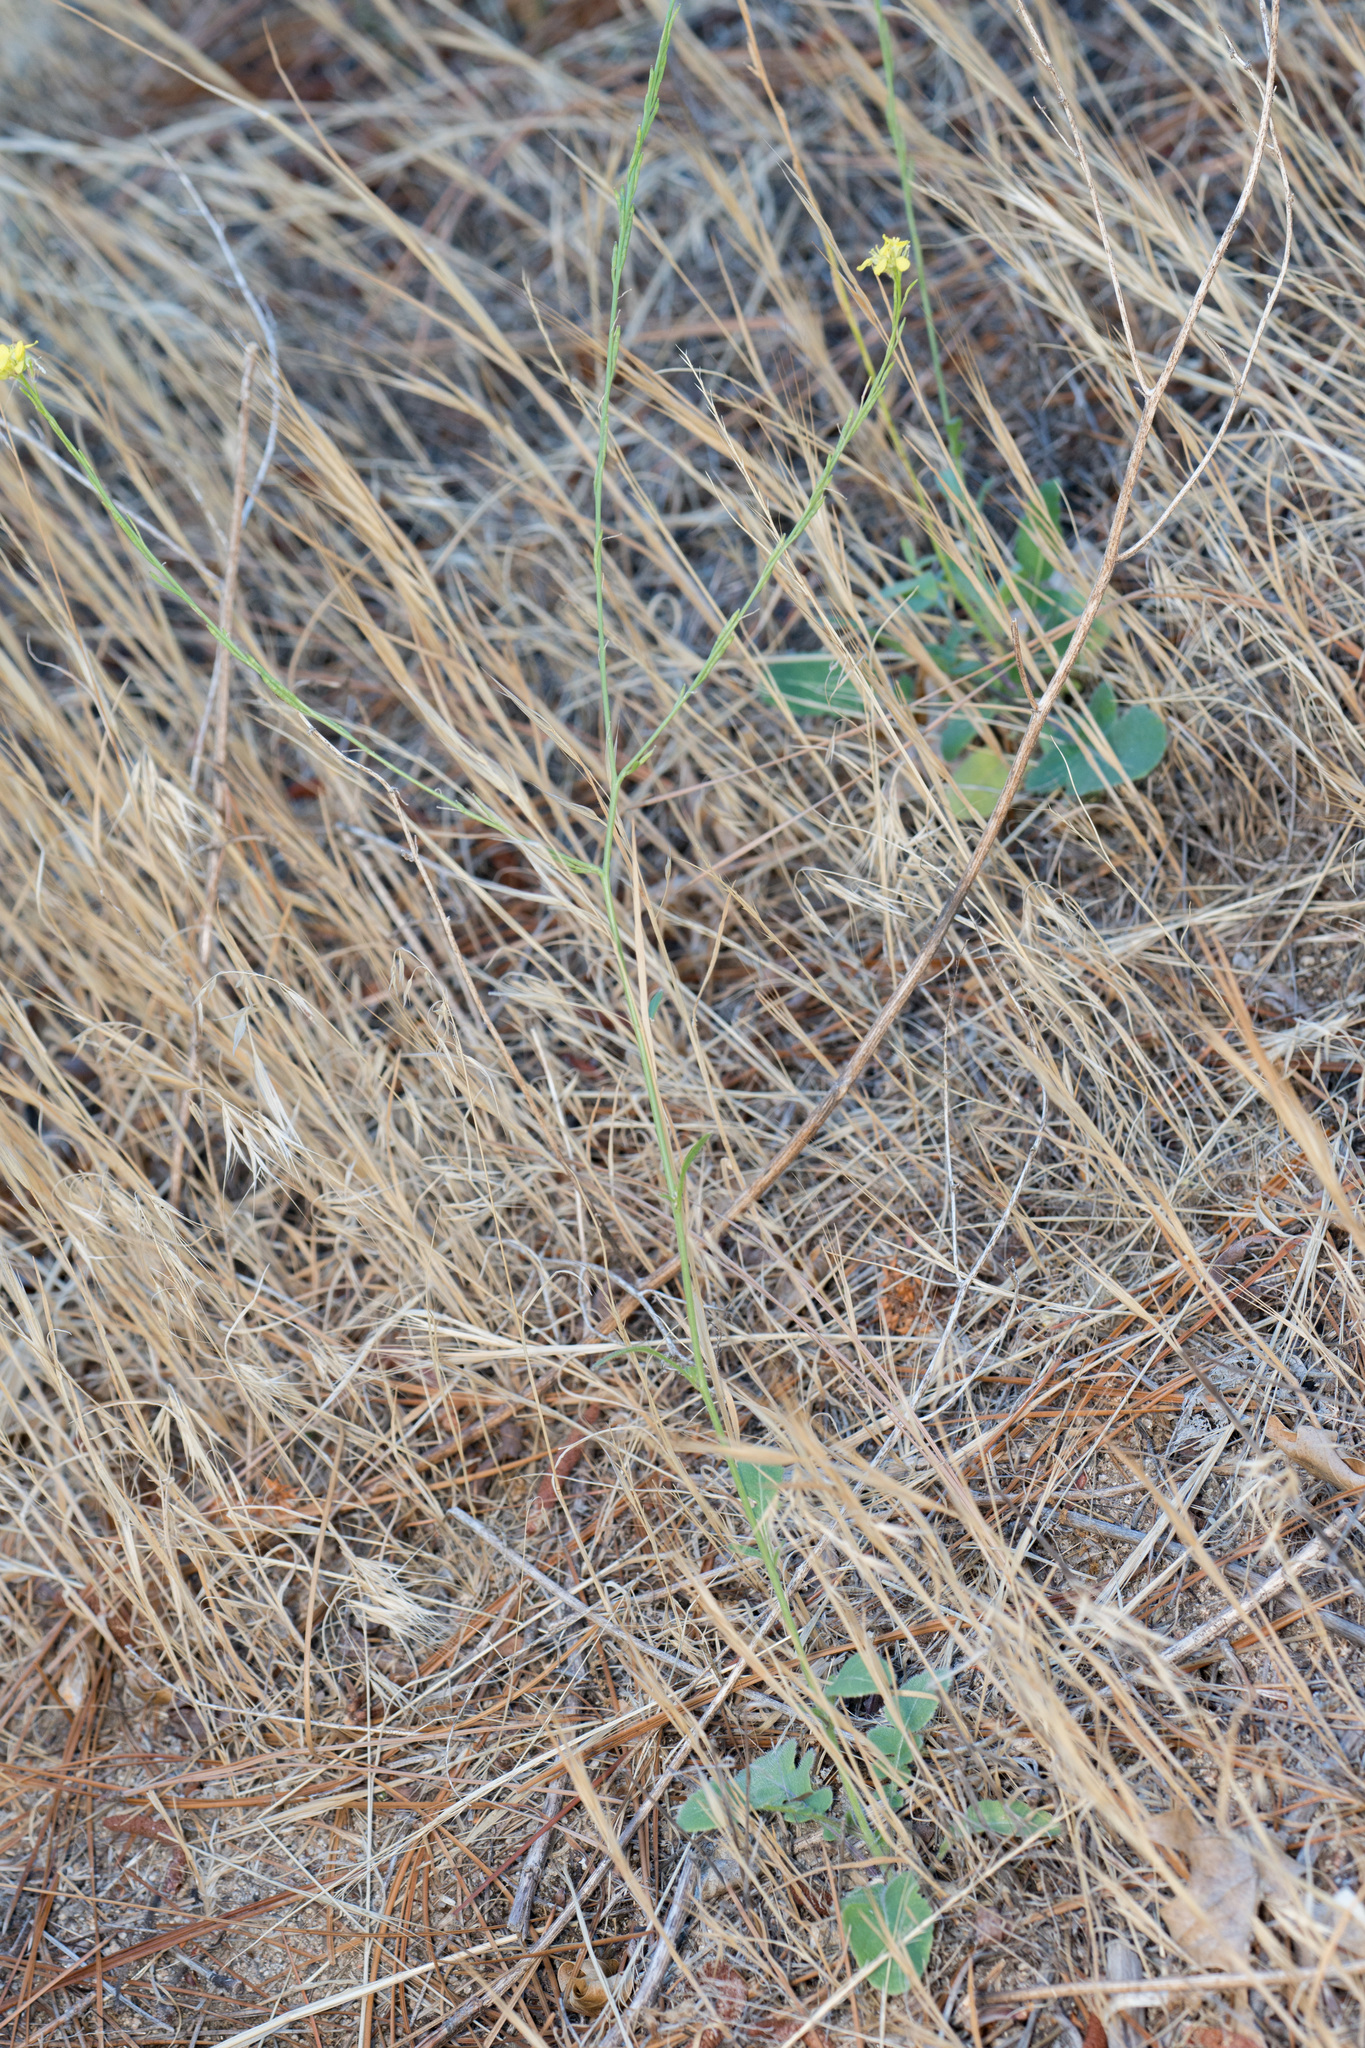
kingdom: Plantae
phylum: Tracheophyta
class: Magnoliopsida
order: Brassicales
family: Brassicaceae
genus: Hirschfeldia
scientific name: Hirschfeldia incana
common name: Hoary mustard
